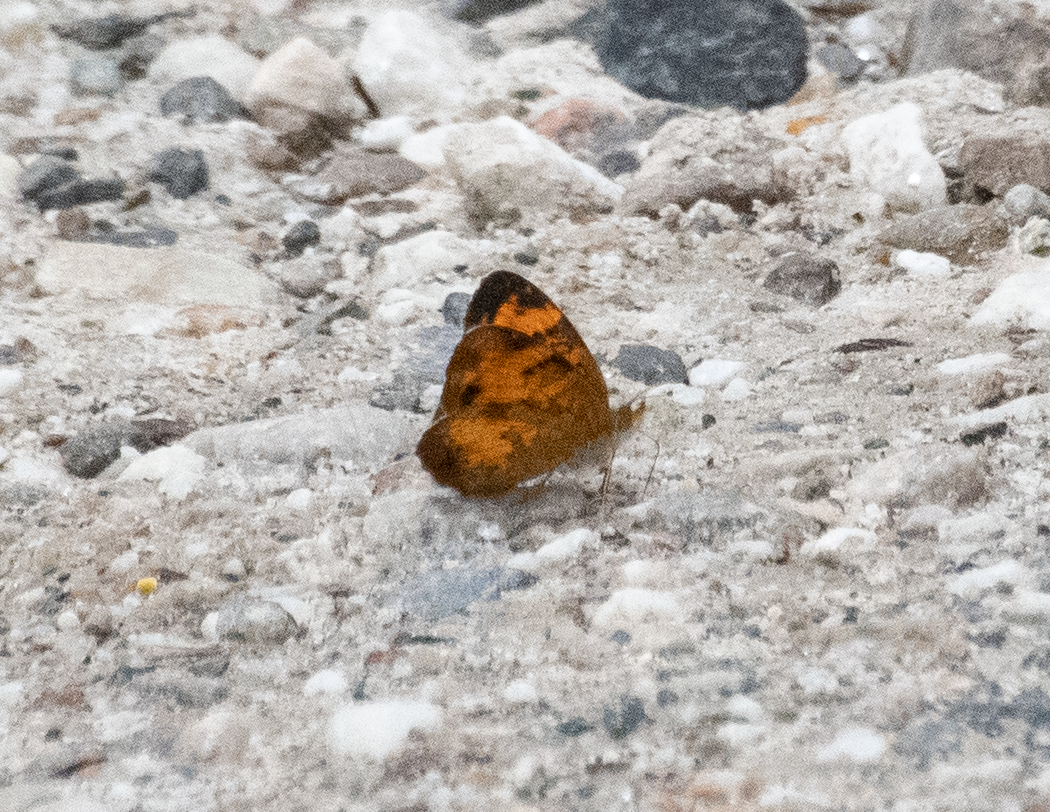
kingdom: Animalia
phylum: Arthropoda
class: Insecta
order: Lepidoptera
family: Nymphalidae
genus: Phyciodes
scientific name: Phyciodes tharos
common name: Pearl crescent
